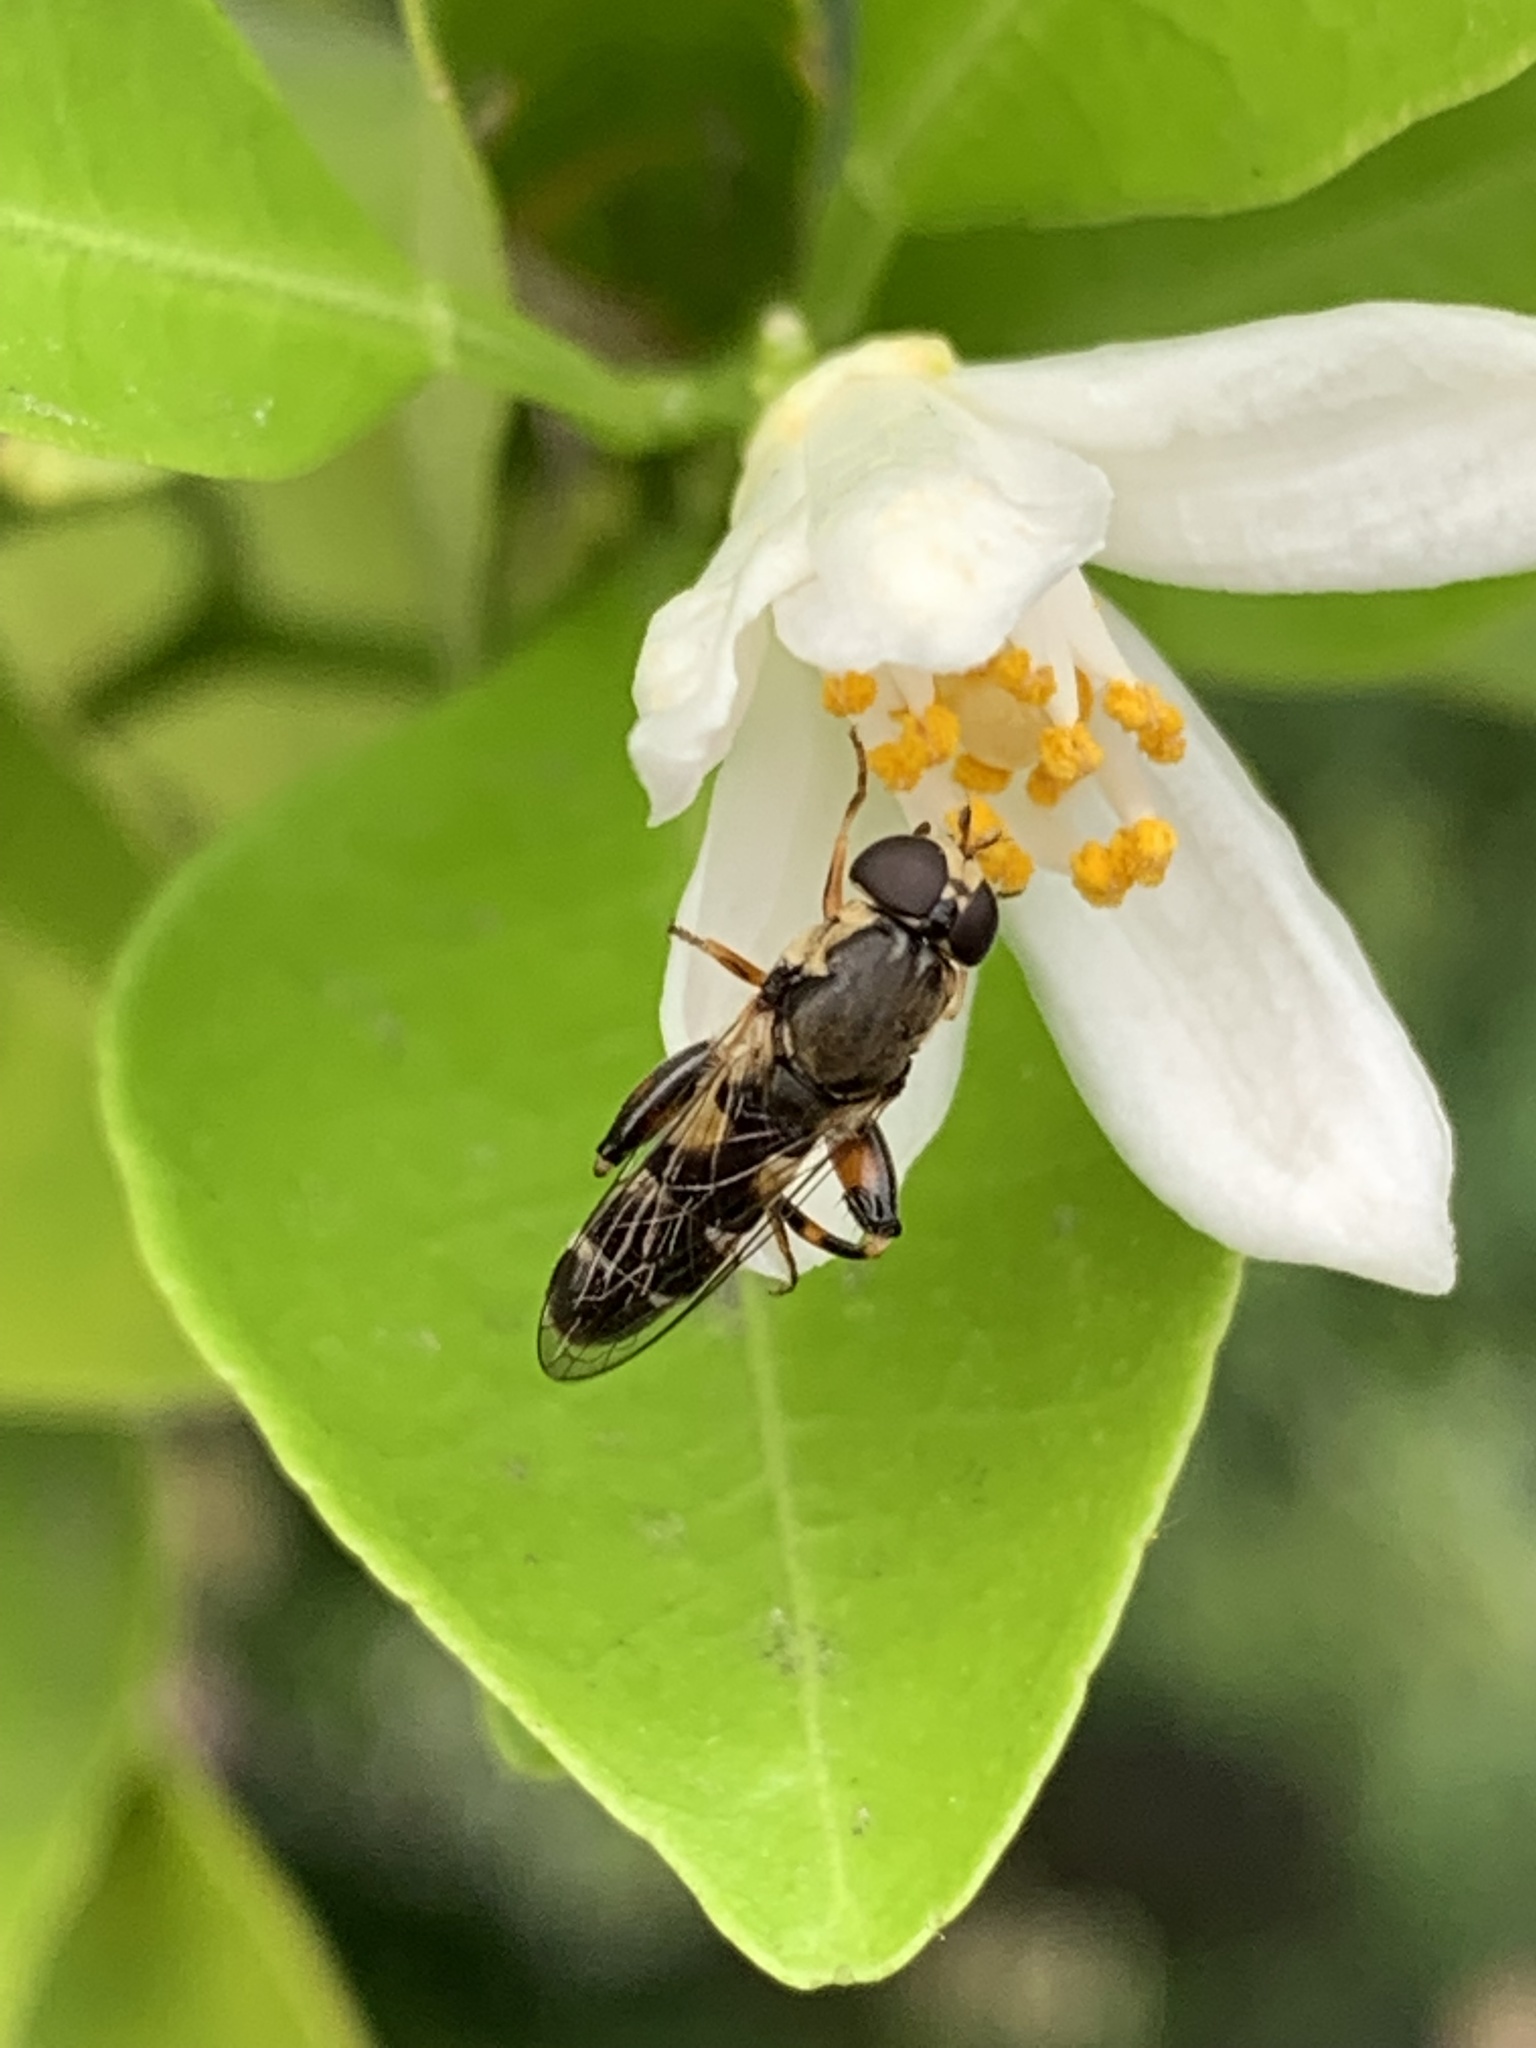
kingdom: Animalia
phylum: Arthropoda
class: Insecta
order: Diptera
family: Syrphidae
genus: Syritta
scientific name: Syritta pipiens
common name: Hover fly
